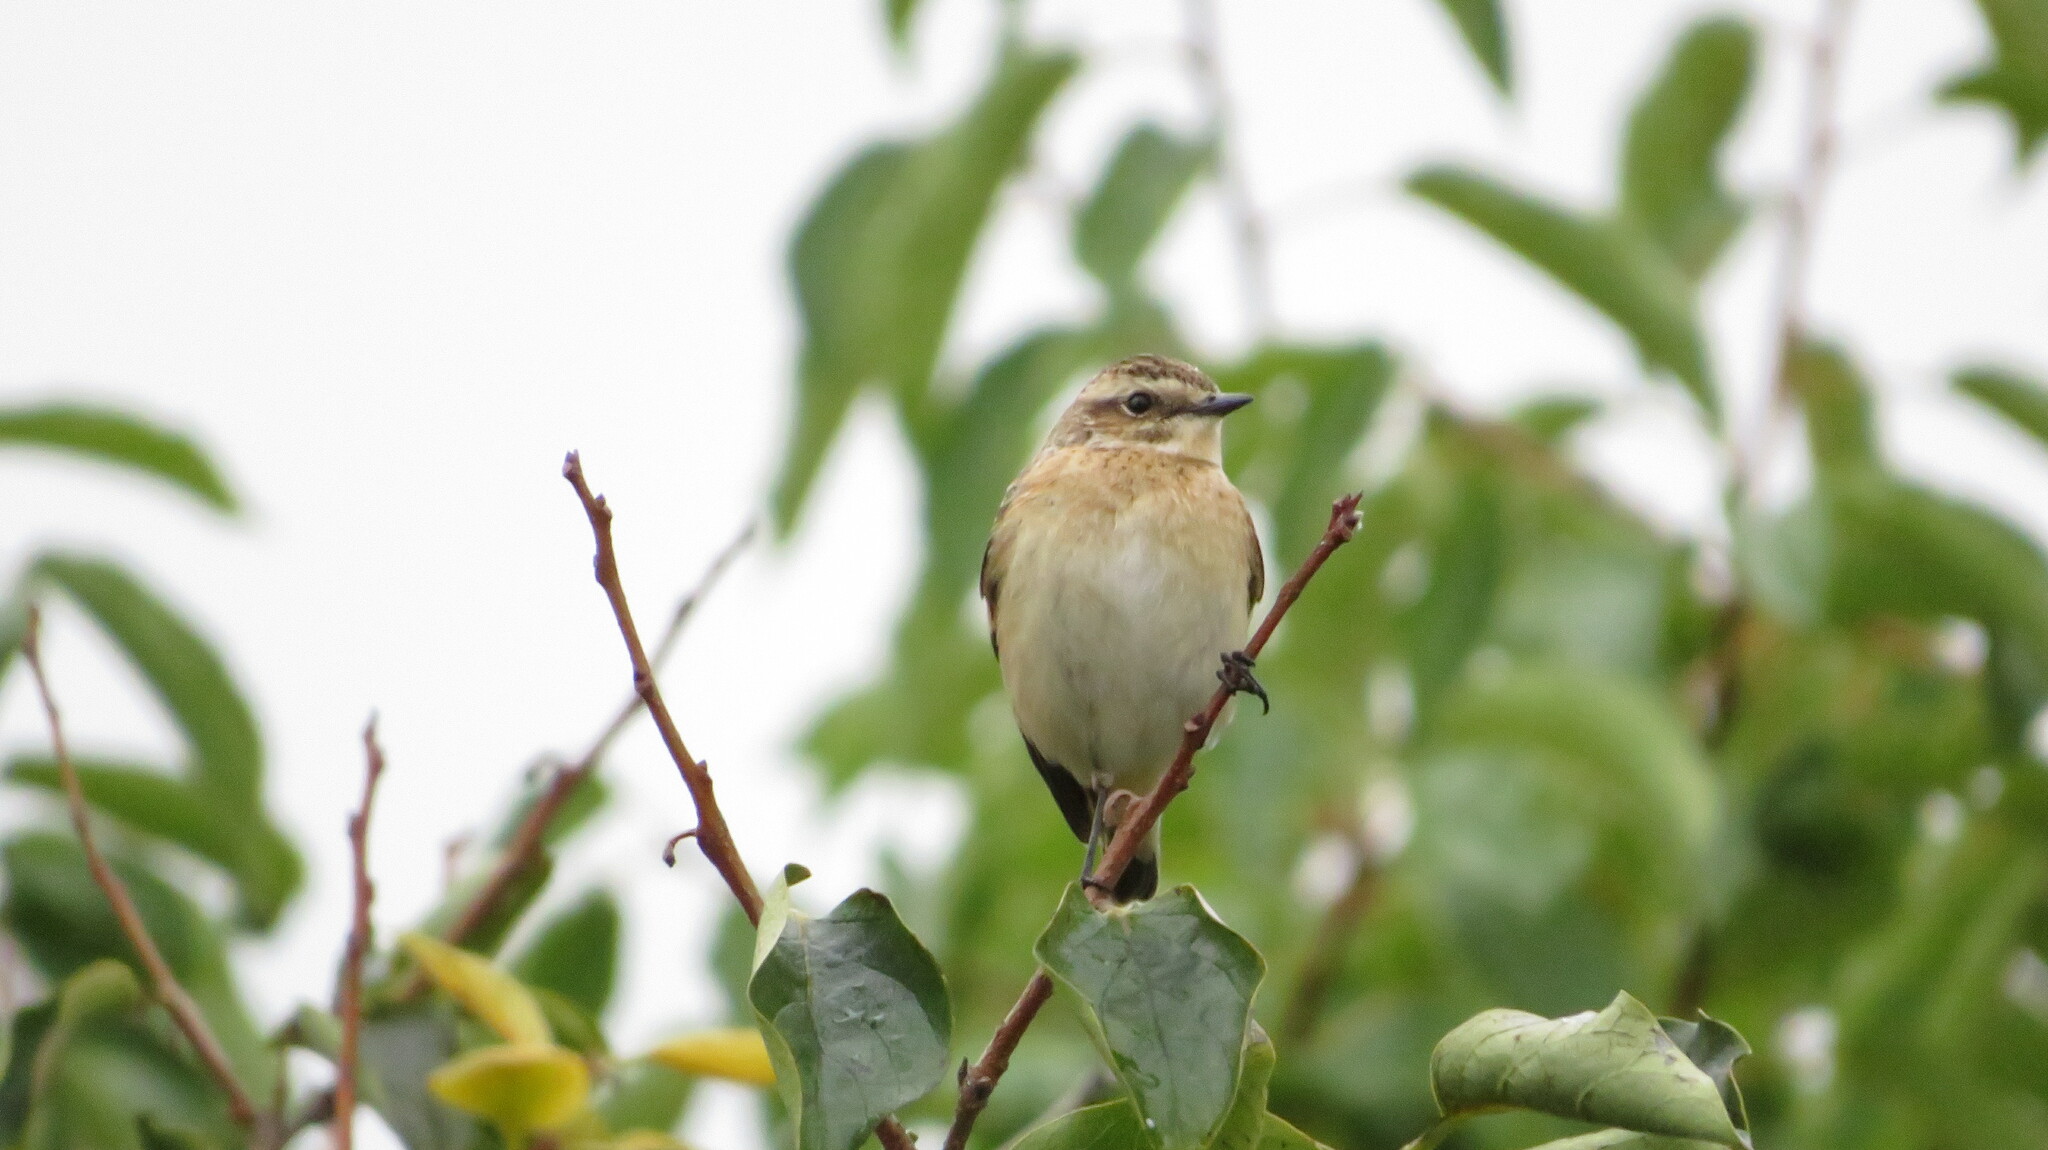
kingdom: Animalia
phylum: Chordata
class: Aves
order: Passeriformes
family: Muscicapidae
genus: Saxicola
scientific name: Saxicola rubetra
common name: Whinchat
